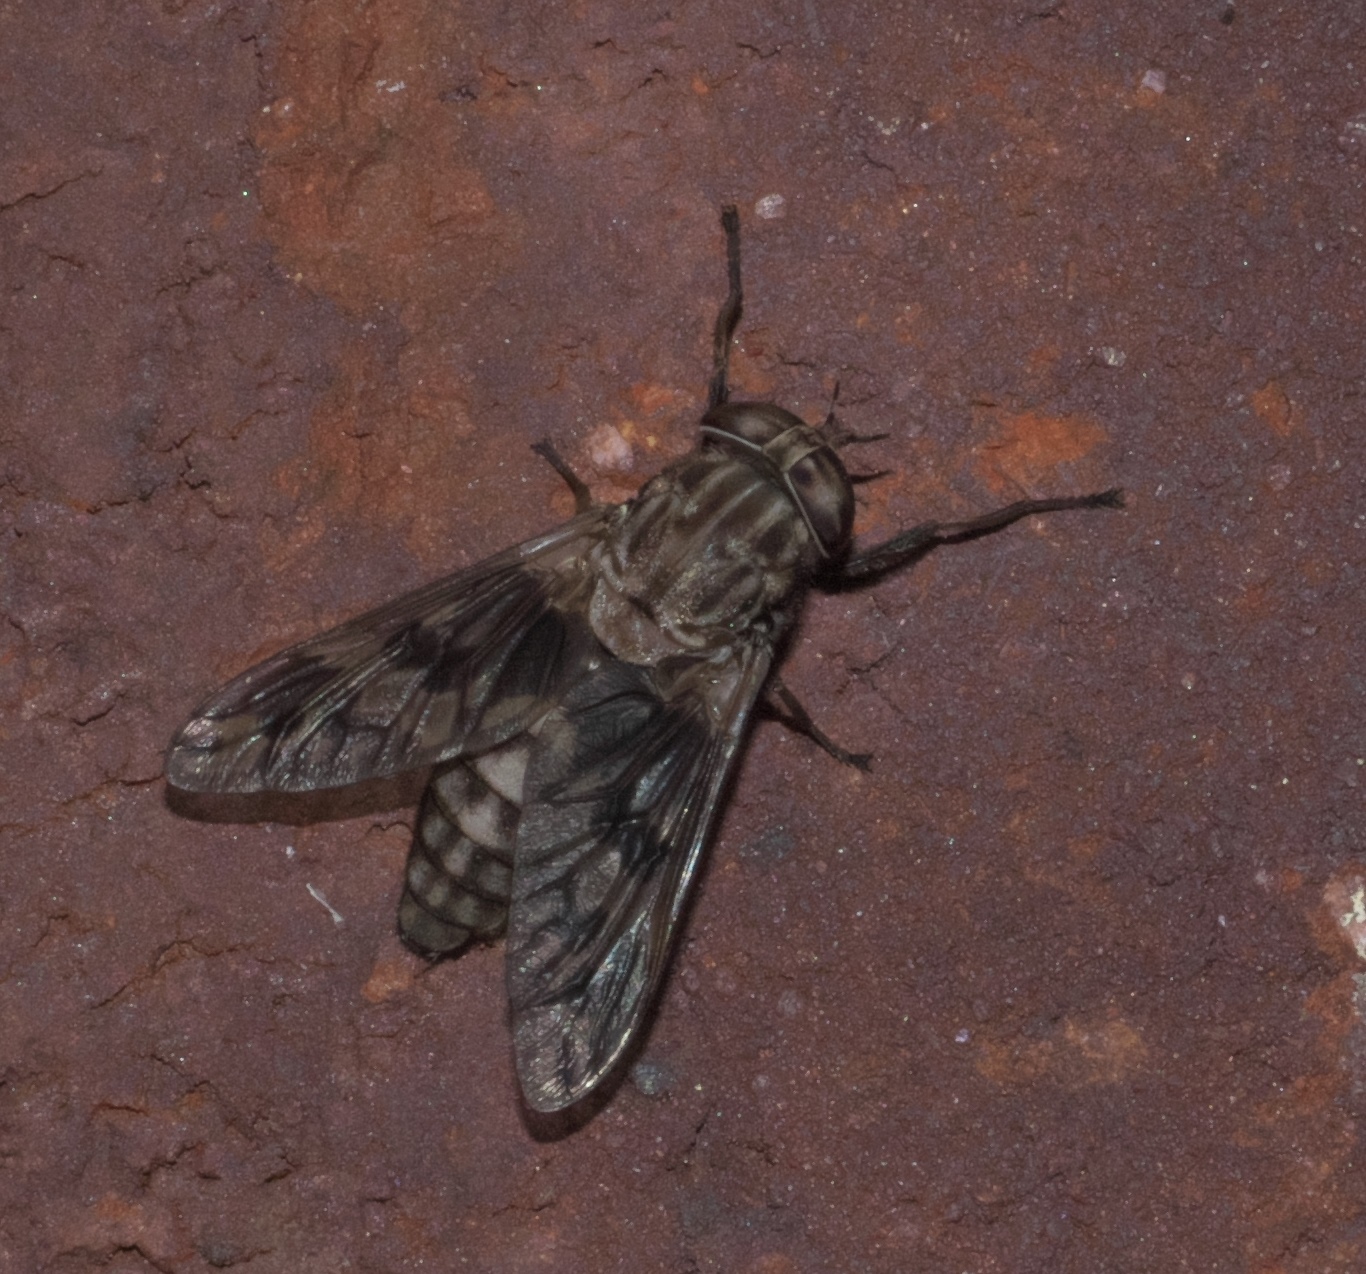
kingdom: Animalia
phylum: Arthropoda
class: Insecta
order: Diptera
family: Tabanidae
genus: Tabanus
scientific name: Tabanus venustus
